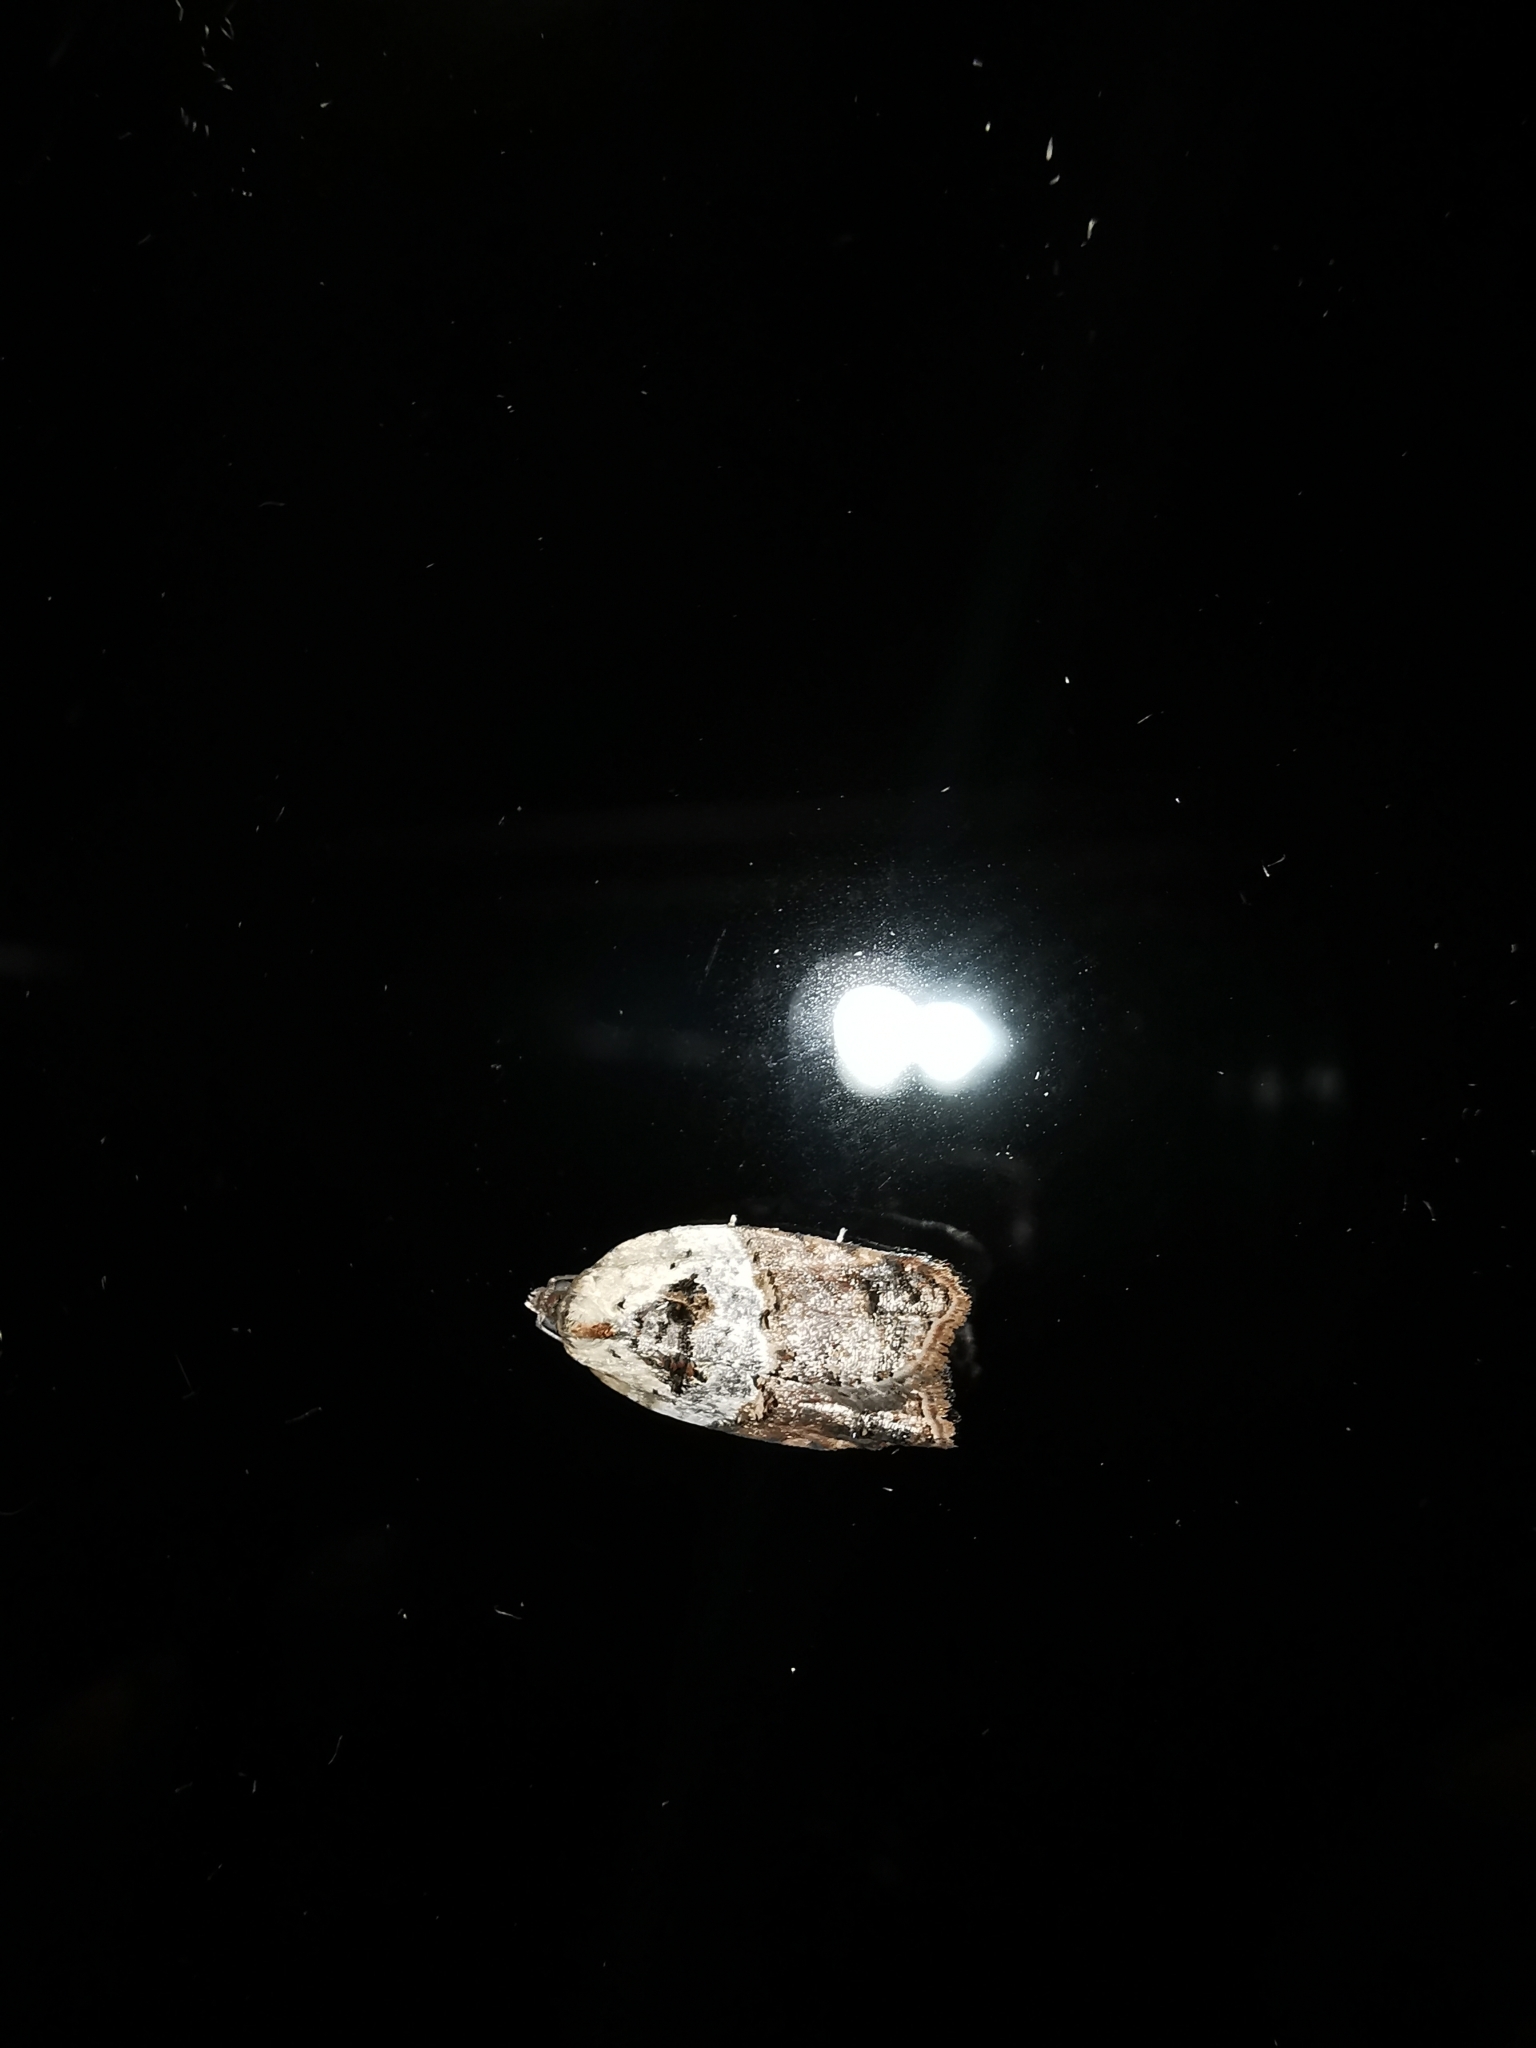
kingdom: Animalia
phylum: Arthropoda
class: Insecta
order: Lepidoptera
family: Tortricidae
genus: Acleris
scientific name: Acleris variegana
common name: Garden rose tortrix
